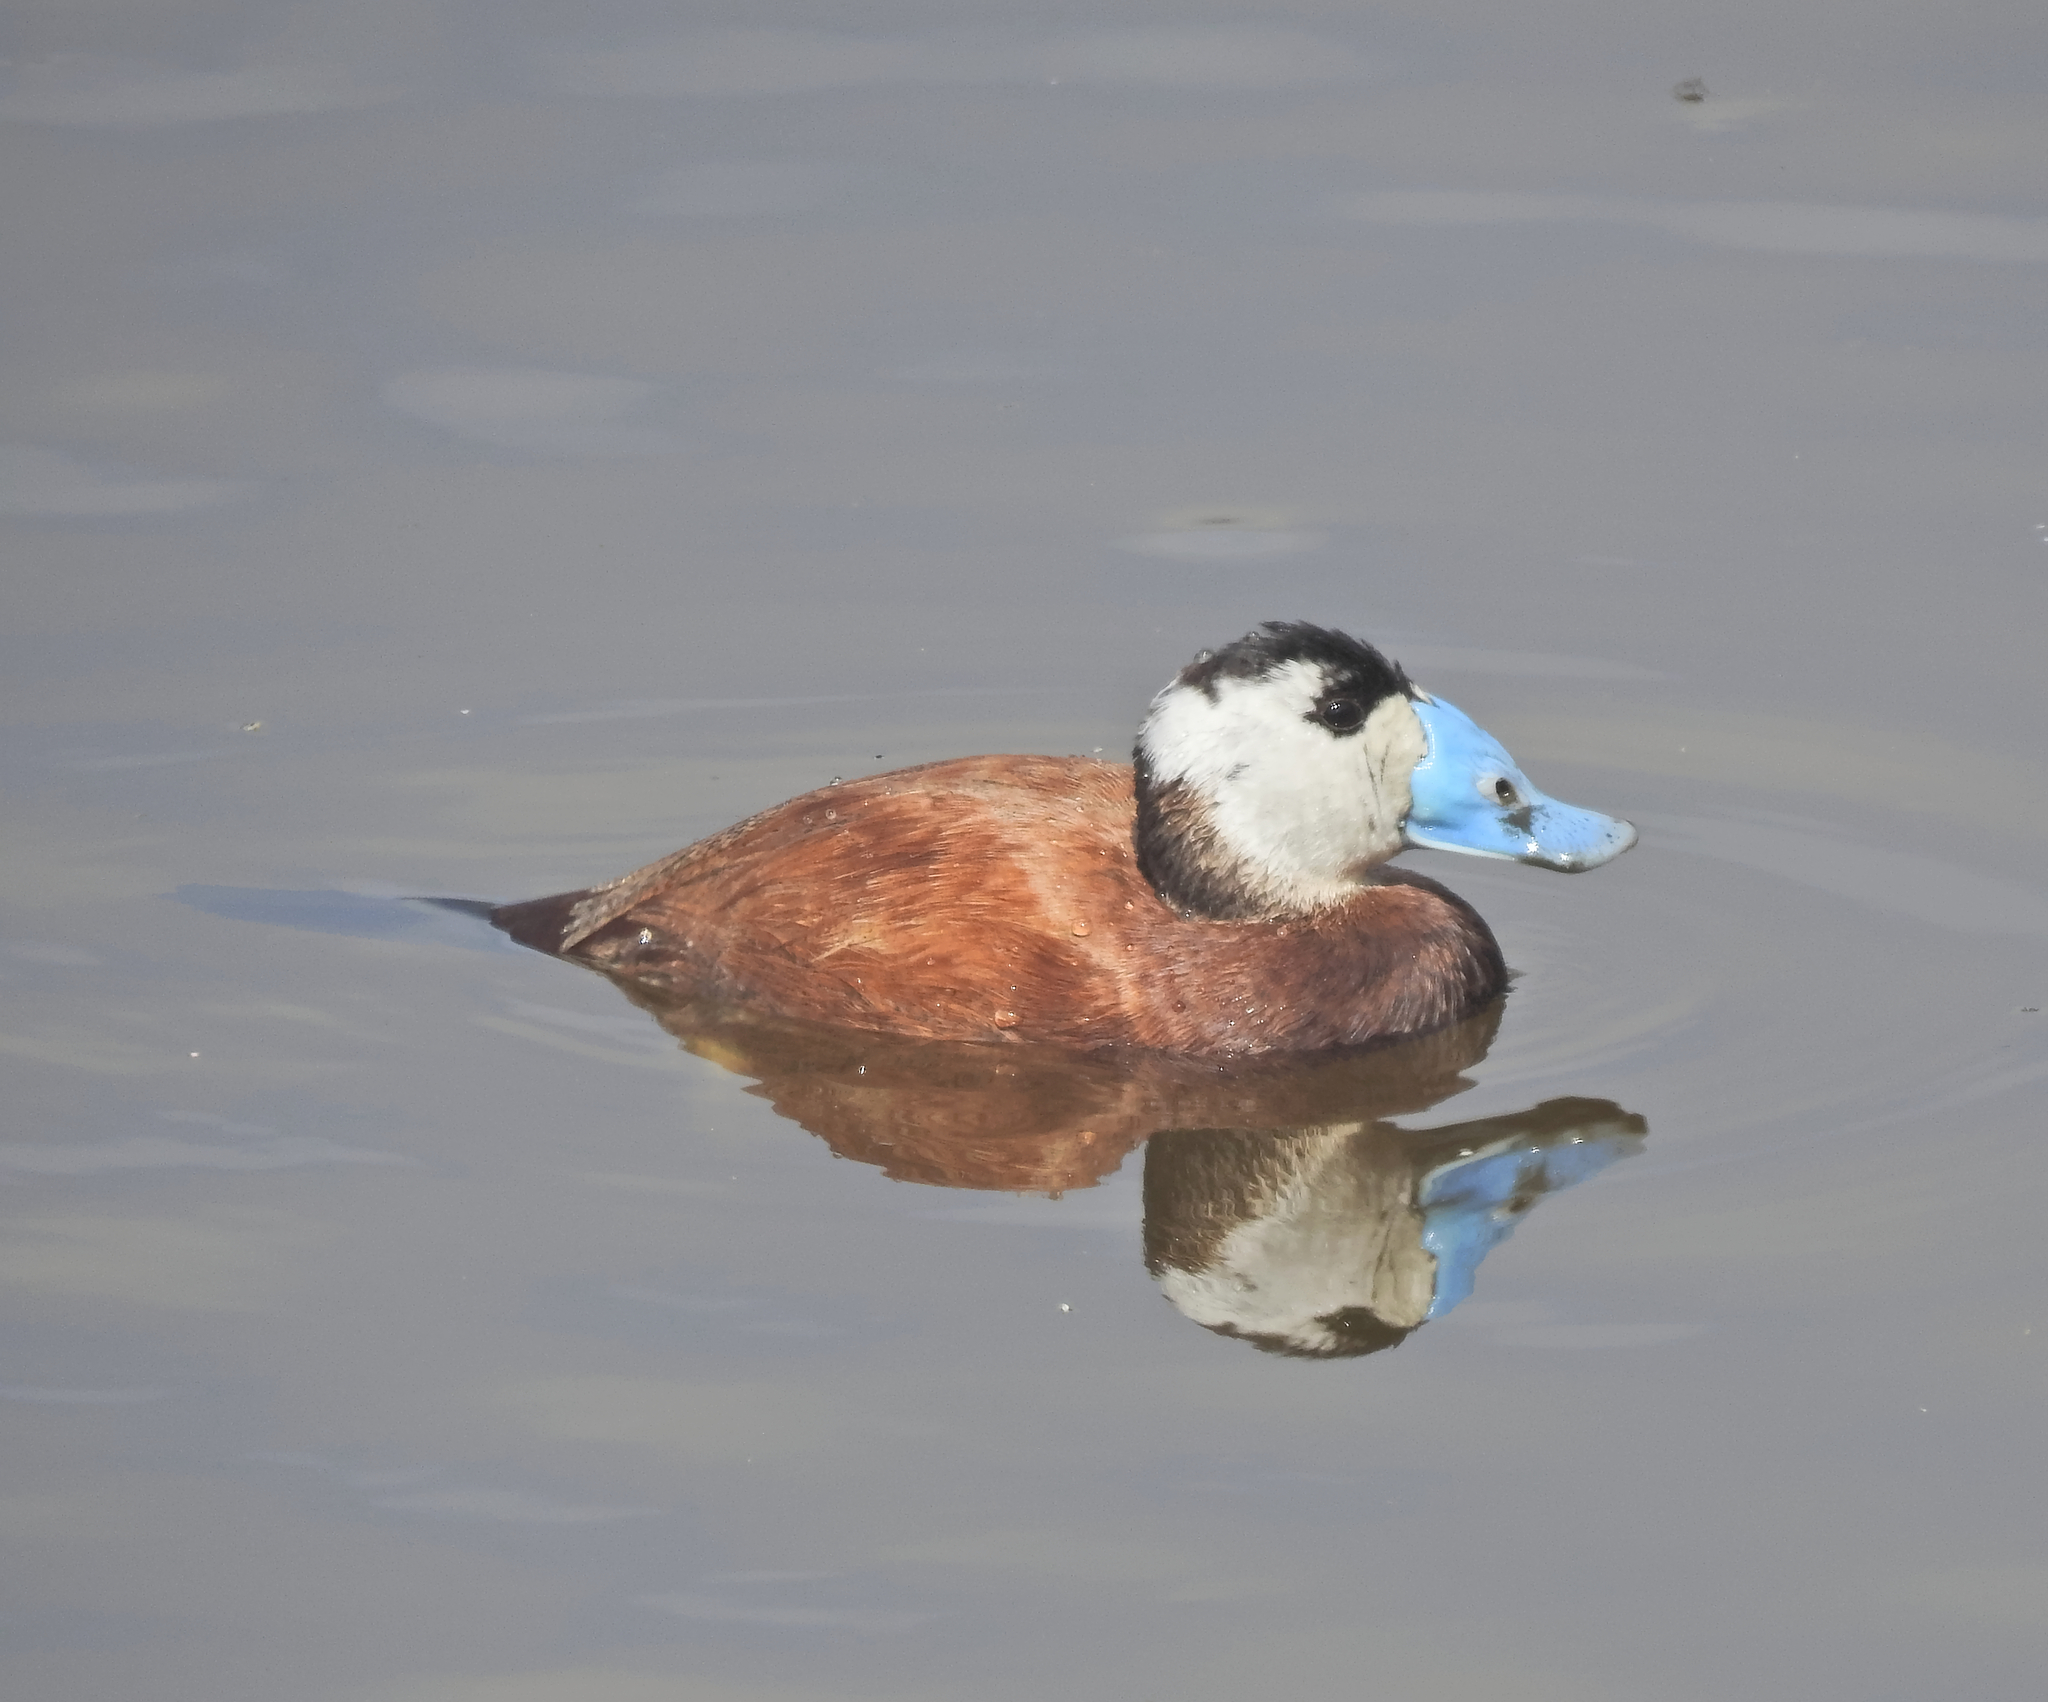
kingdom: Animalia
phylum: Chordata
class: Aves
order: Anseriformes
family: Anatidae
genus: Oxyura
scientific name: Oxyura leucocephala
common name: White-headed duck
